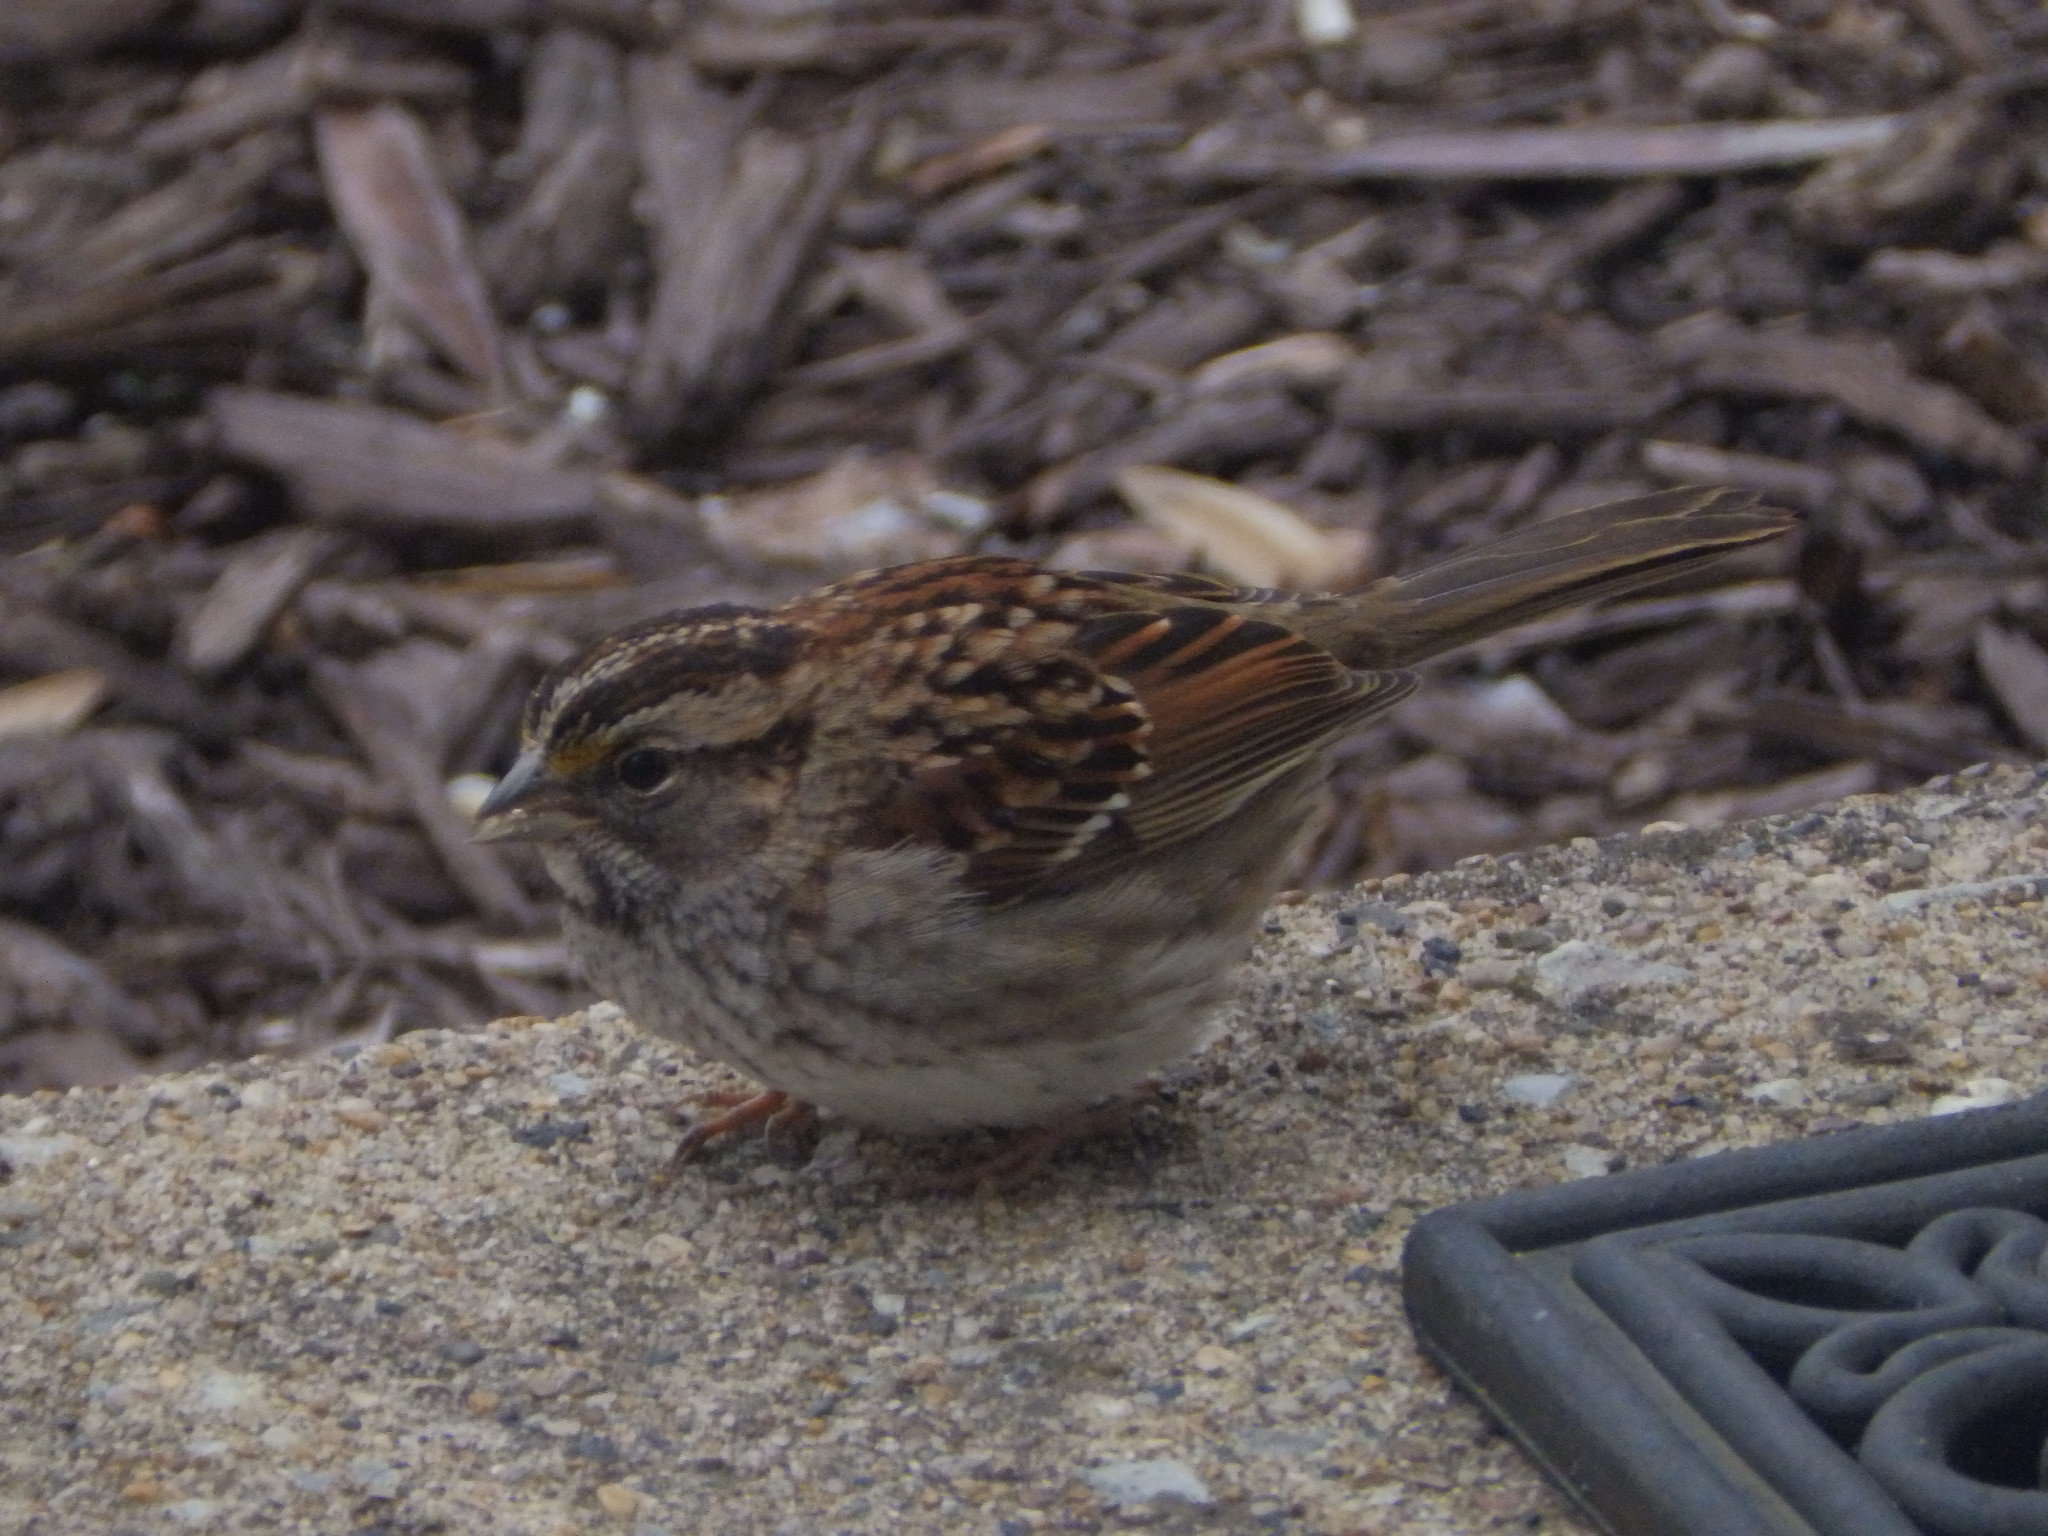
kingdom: Animalia
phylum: Chordata
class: Aves
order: Passeriformes
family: Passerellidae
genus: Zonotrichia
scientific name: Zonotrichia albicollis
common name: White-throated sparrow
